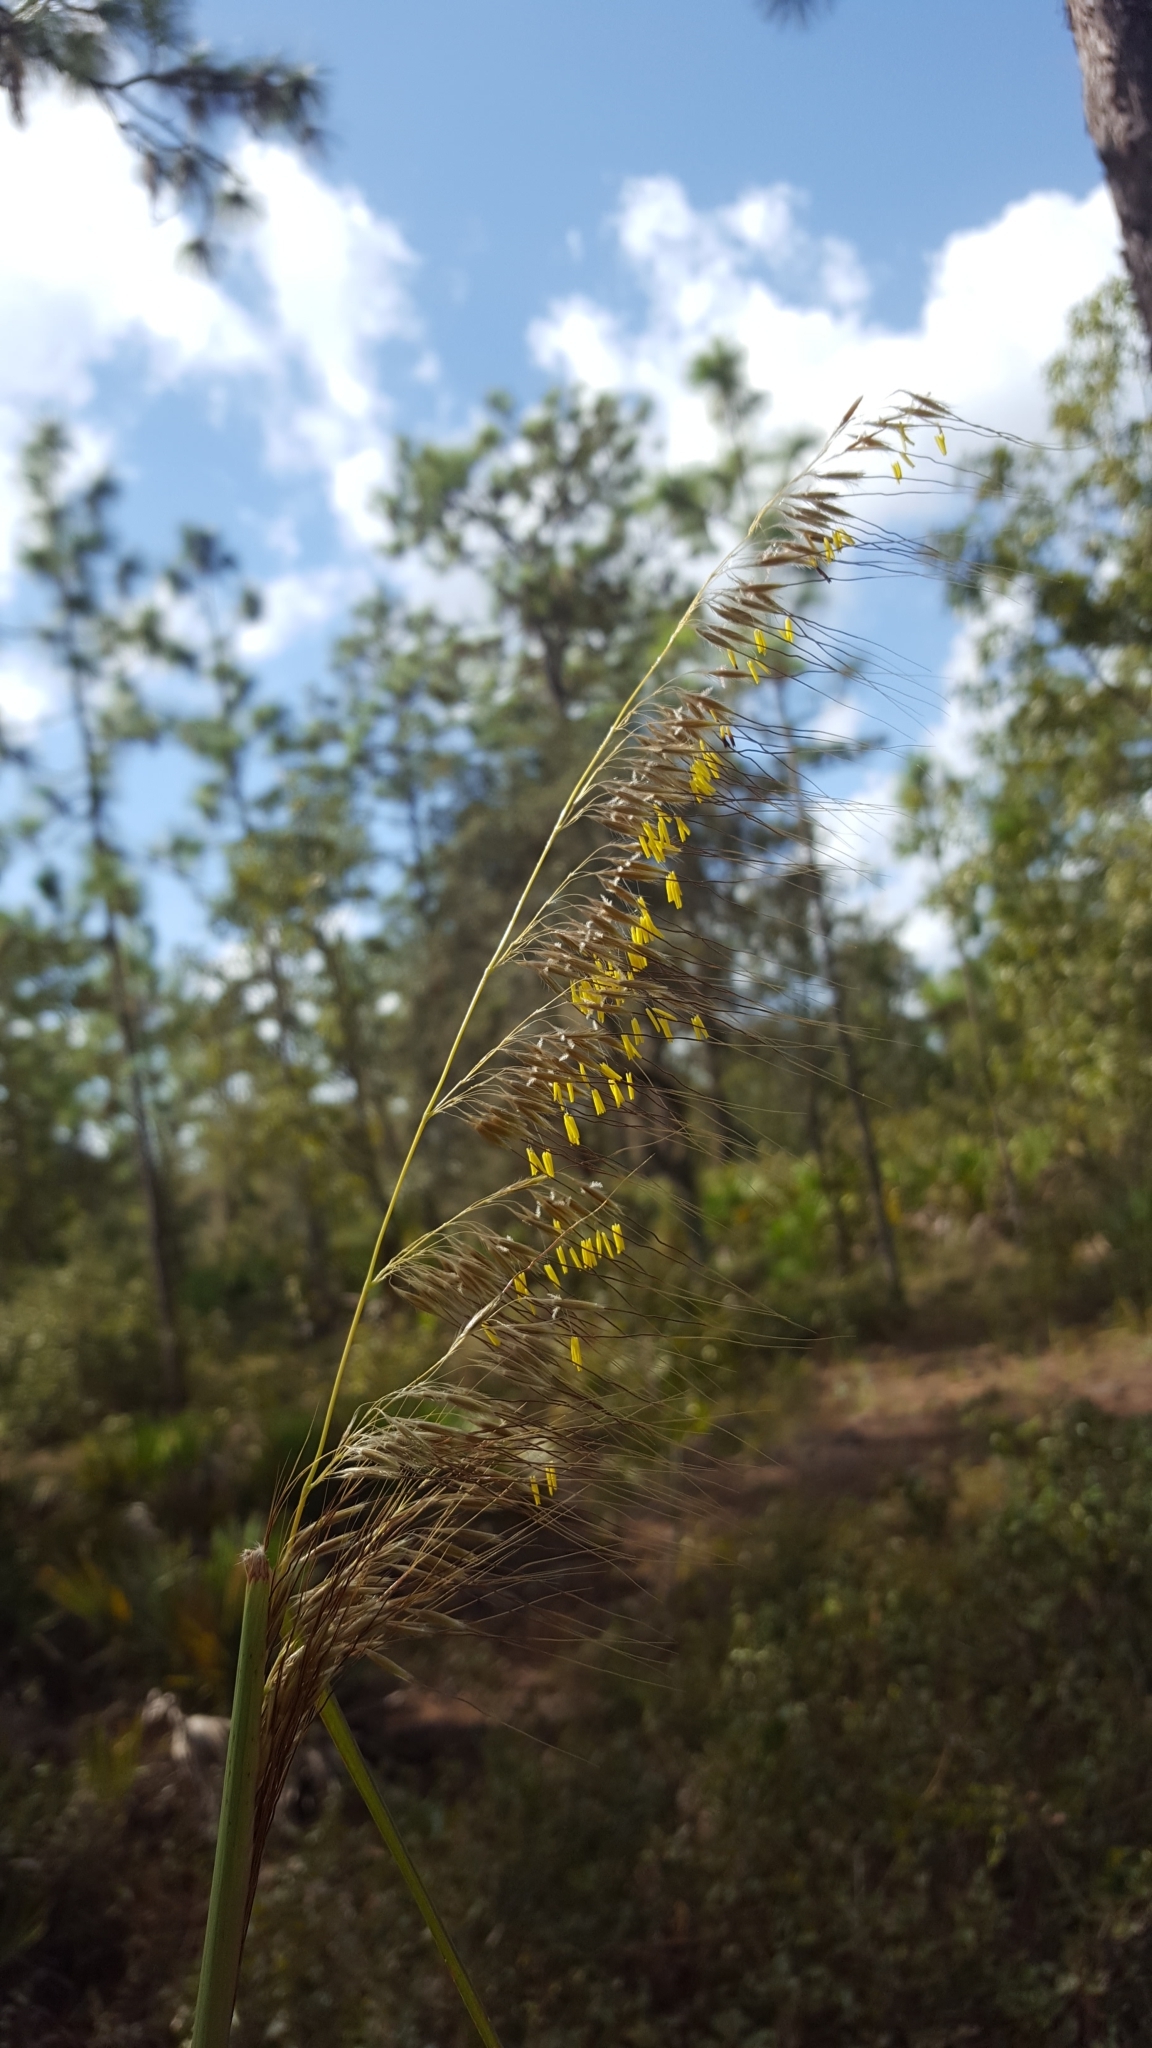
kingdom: Plantae
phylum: Tracheophyta
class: Liliopsida
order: Poales
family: Poaceae
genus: Sorghastrum
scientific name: Sorghastrum secundum
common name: Lopsided indian grass
